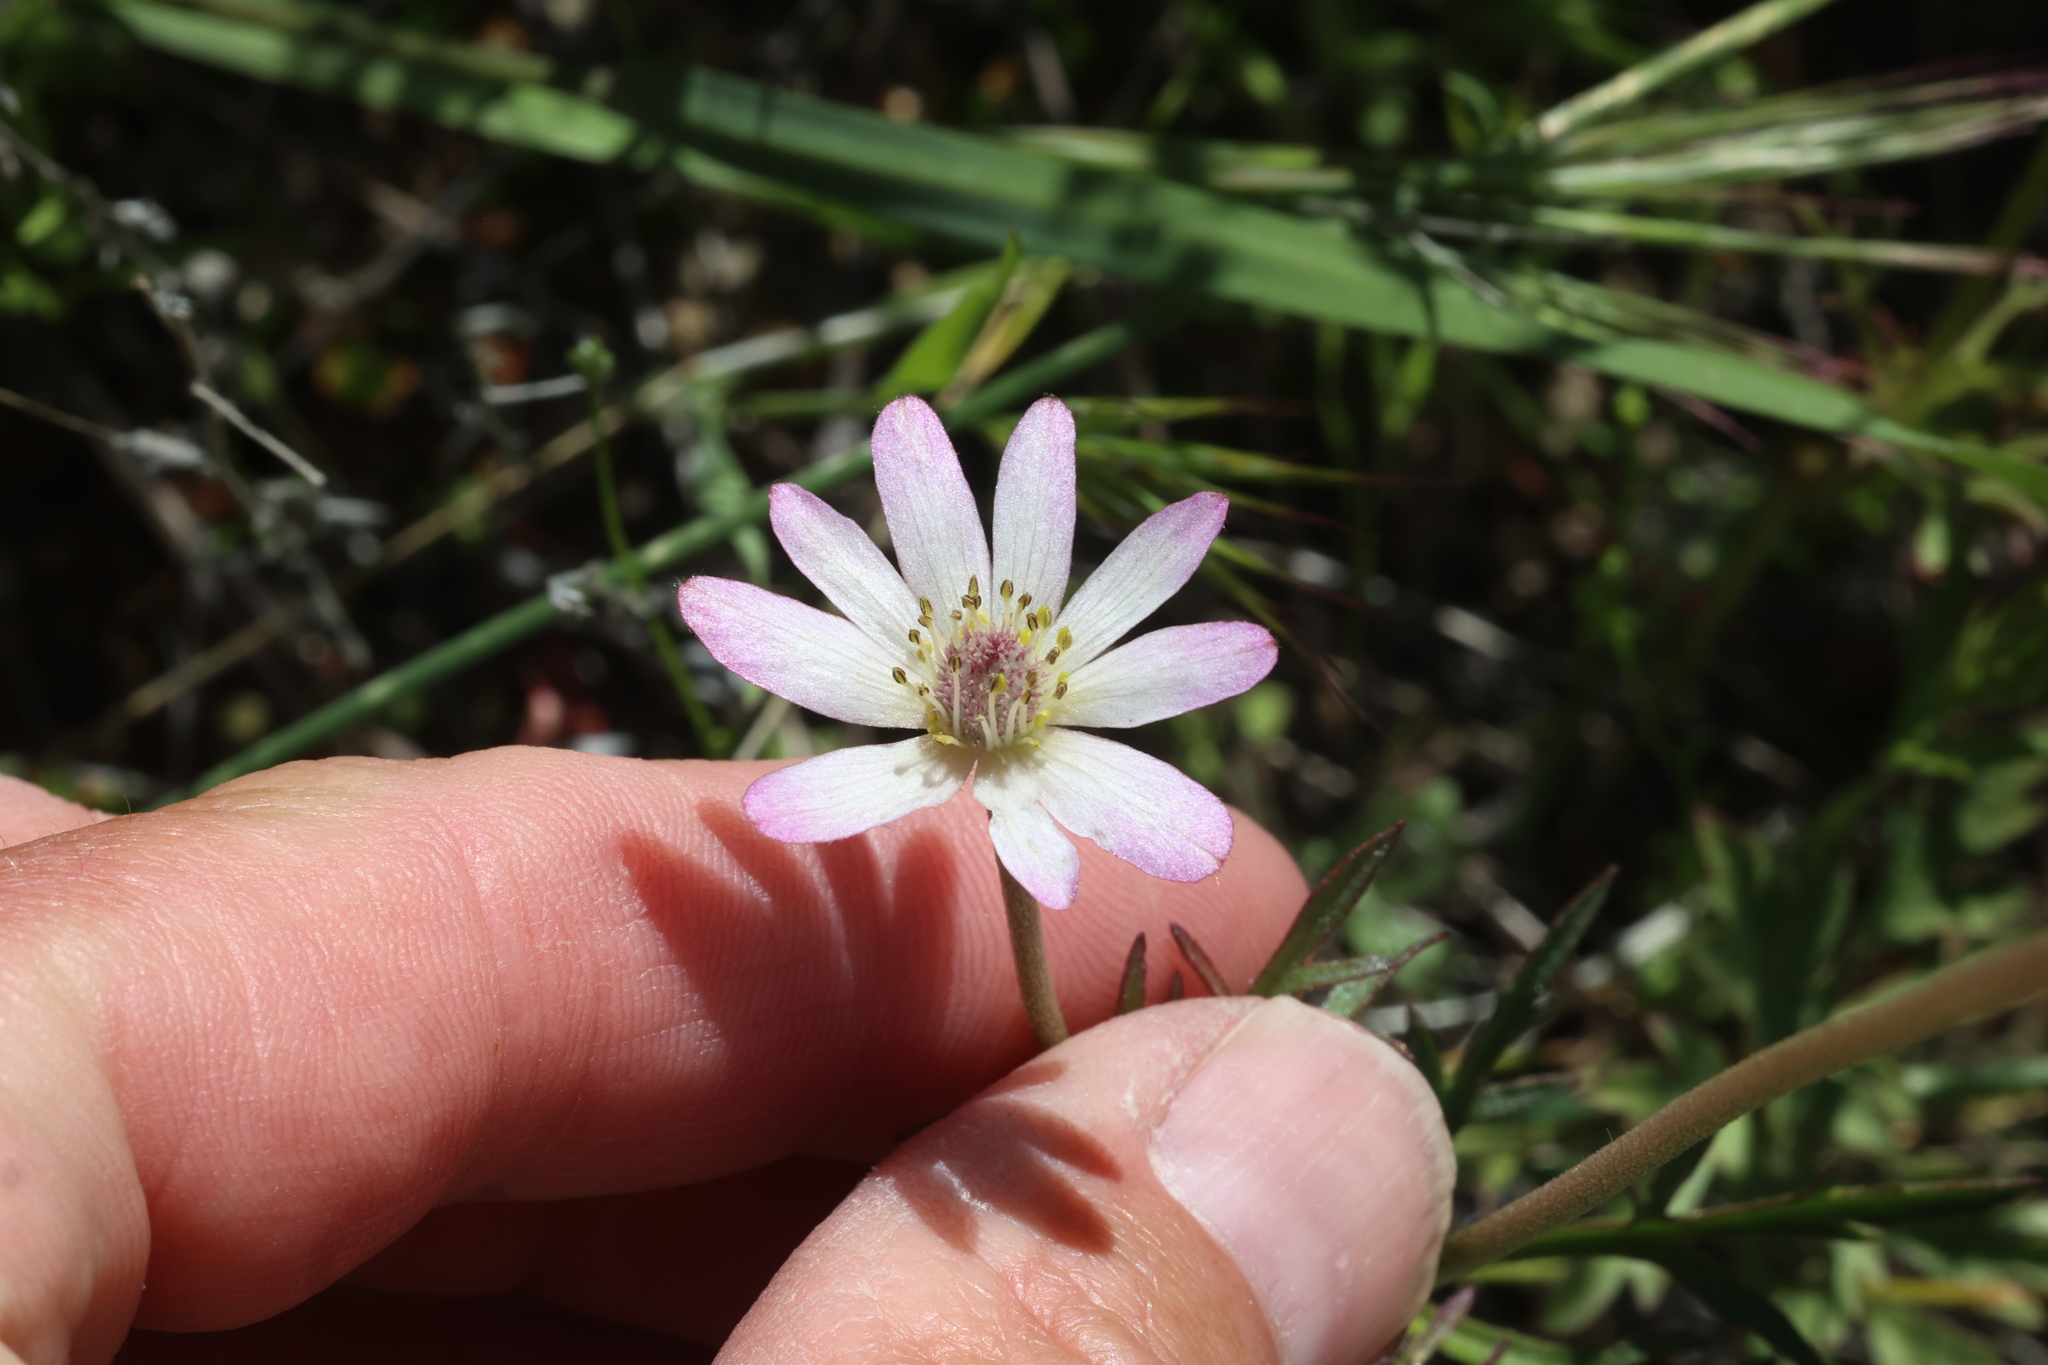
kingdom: Plantae
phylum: Tracheophyta
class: Magnoliopsida
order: Ranunculales
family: Ranunculaceae
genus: Anemone
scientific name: Anemone tuberosa
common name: Desert anemone
